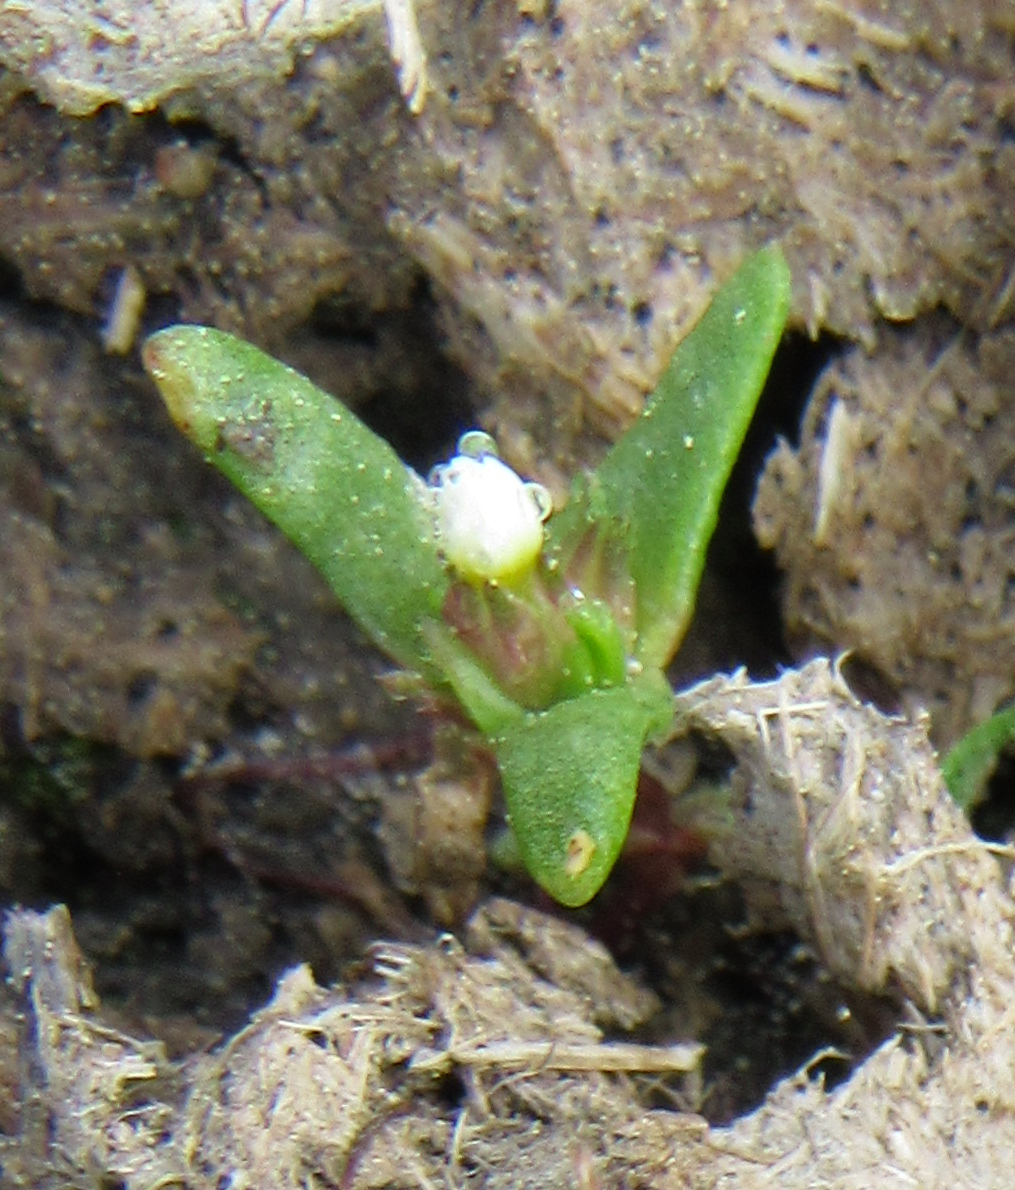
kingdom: Plantae
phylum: Tracheophyta
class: Magnoliopsida
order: Ericales
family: Polemoniaceae
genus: Gymnosteris
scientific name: Gymnosteris parvula
